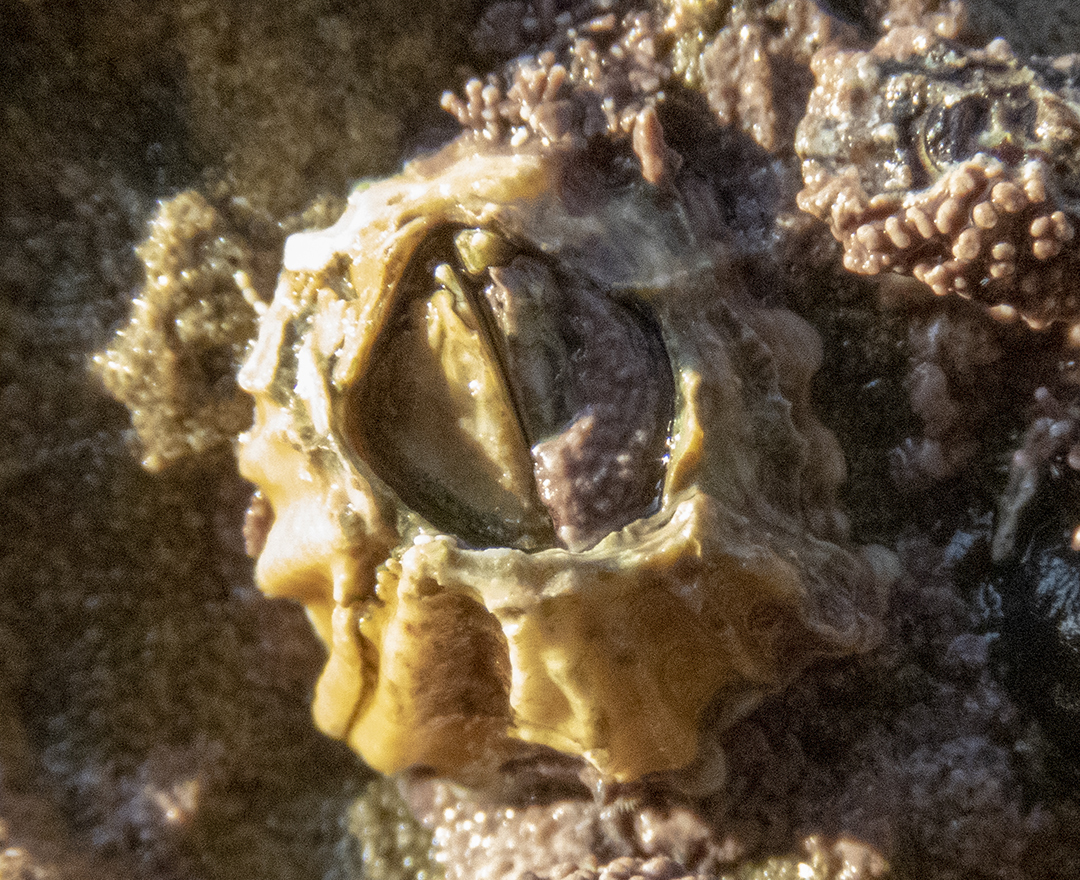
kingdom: Animalia
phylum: Arthropoda
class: Maxillopoda
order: Sessilia
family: Tetraclitidae
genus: Epopella
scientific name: Epopella plicata
